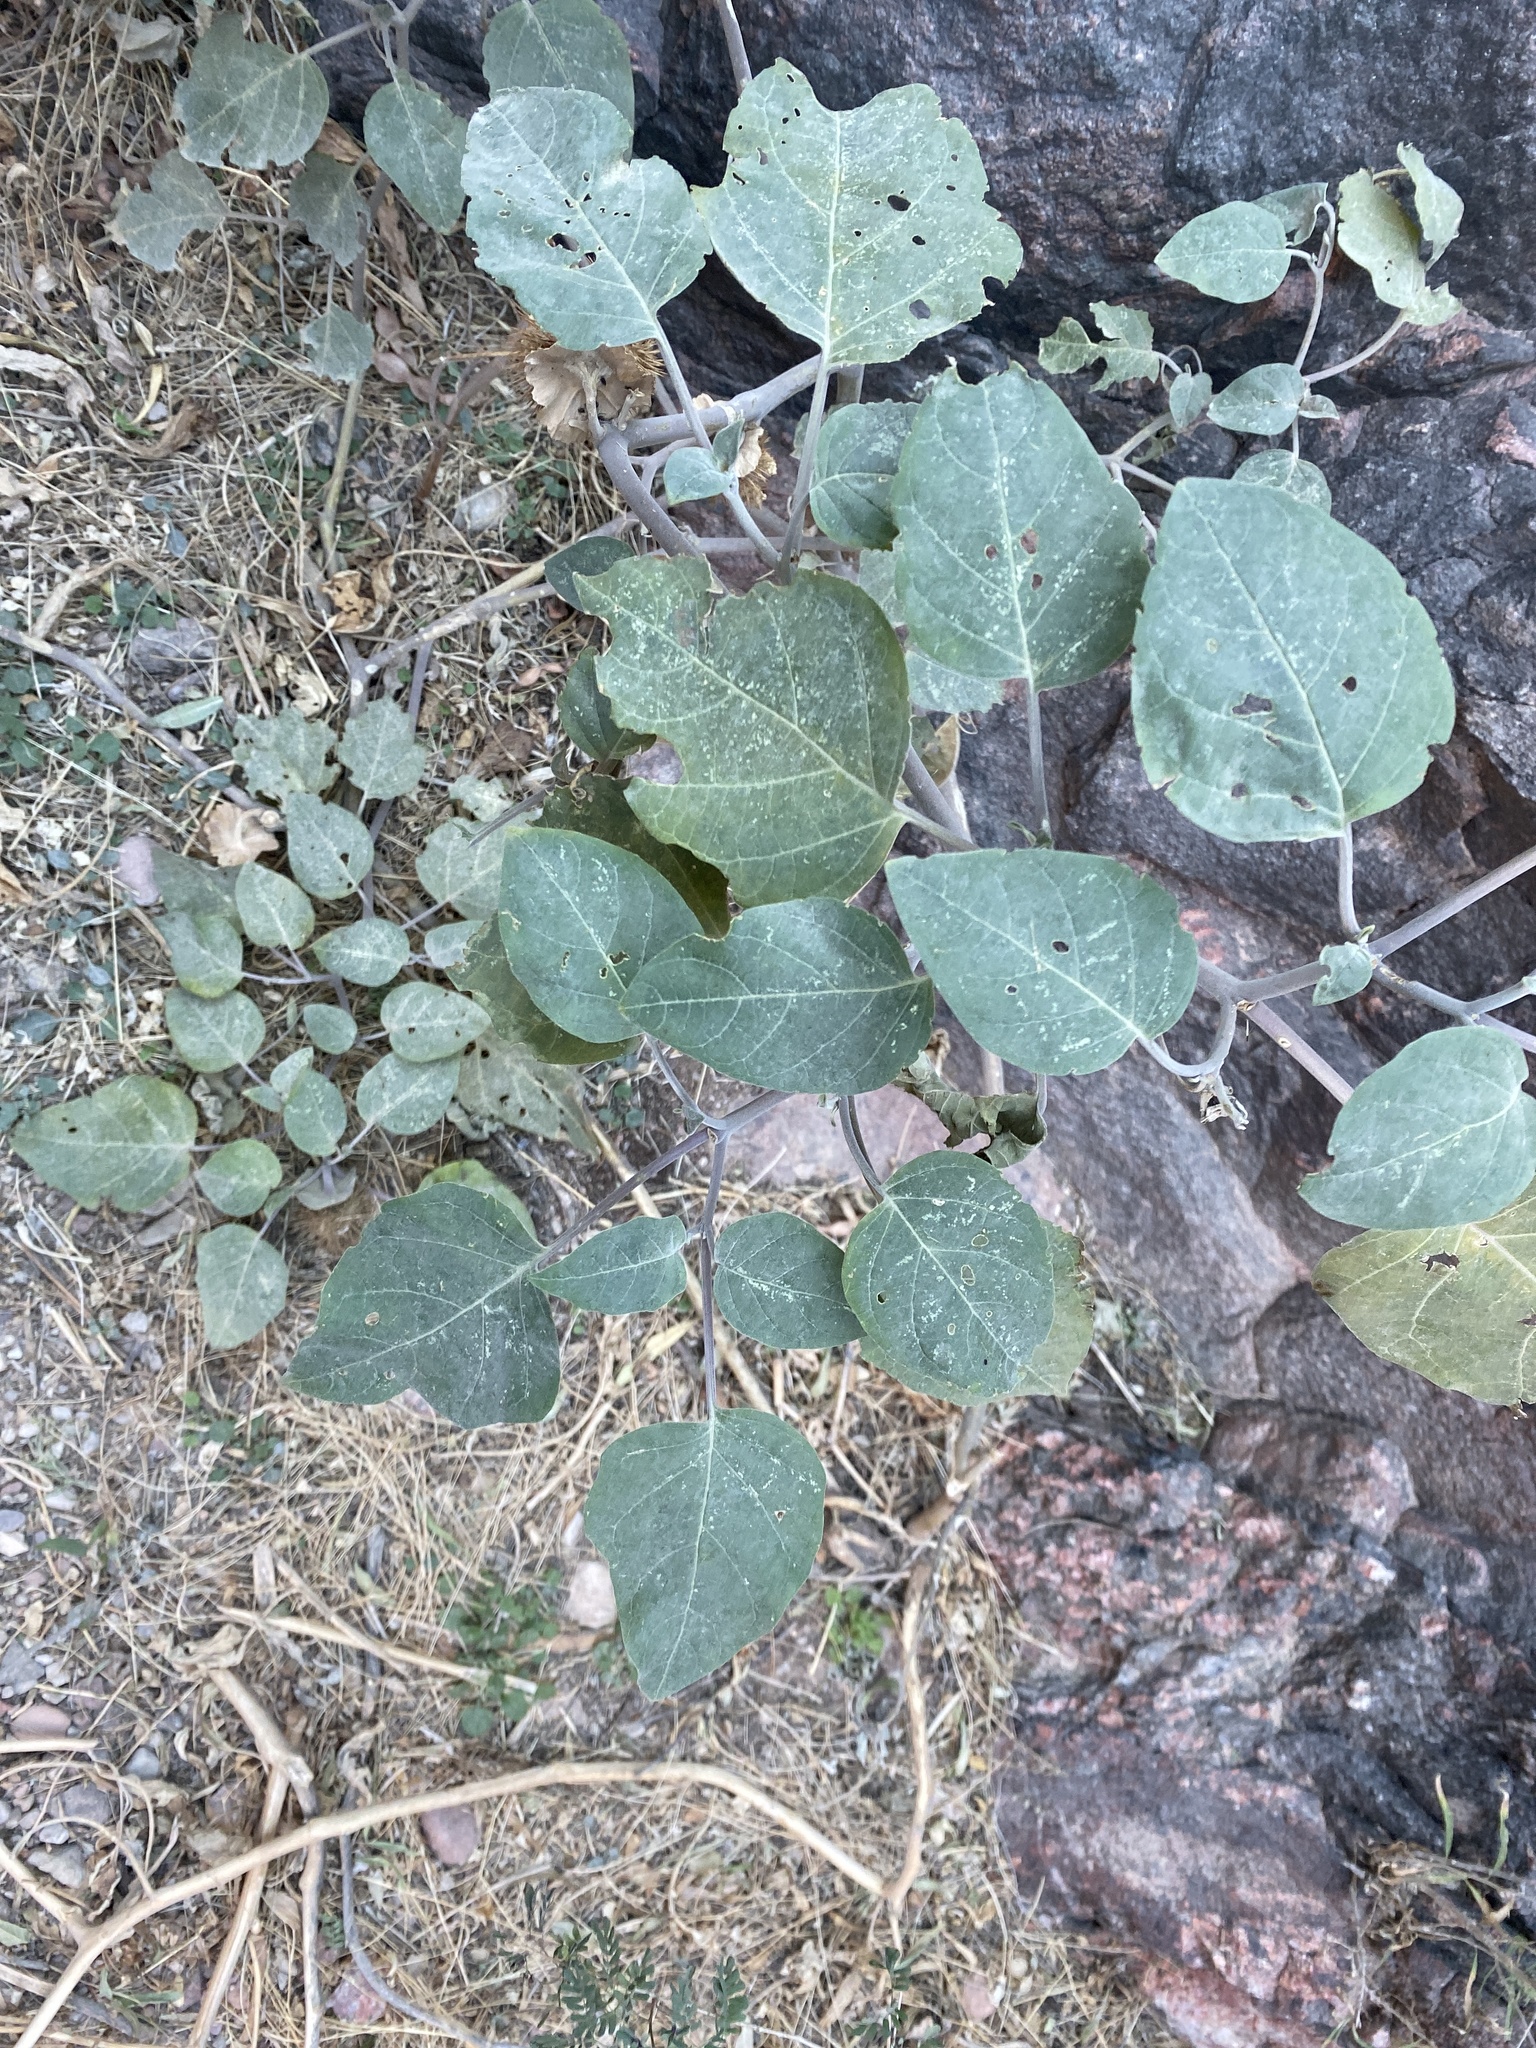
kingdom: Plantae
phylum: Tracheophyta
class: Magnoliopsida
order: Solanales
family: Solanaceae
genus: Datura
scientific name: Datura wrightii
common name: Sacred thorn-apple
